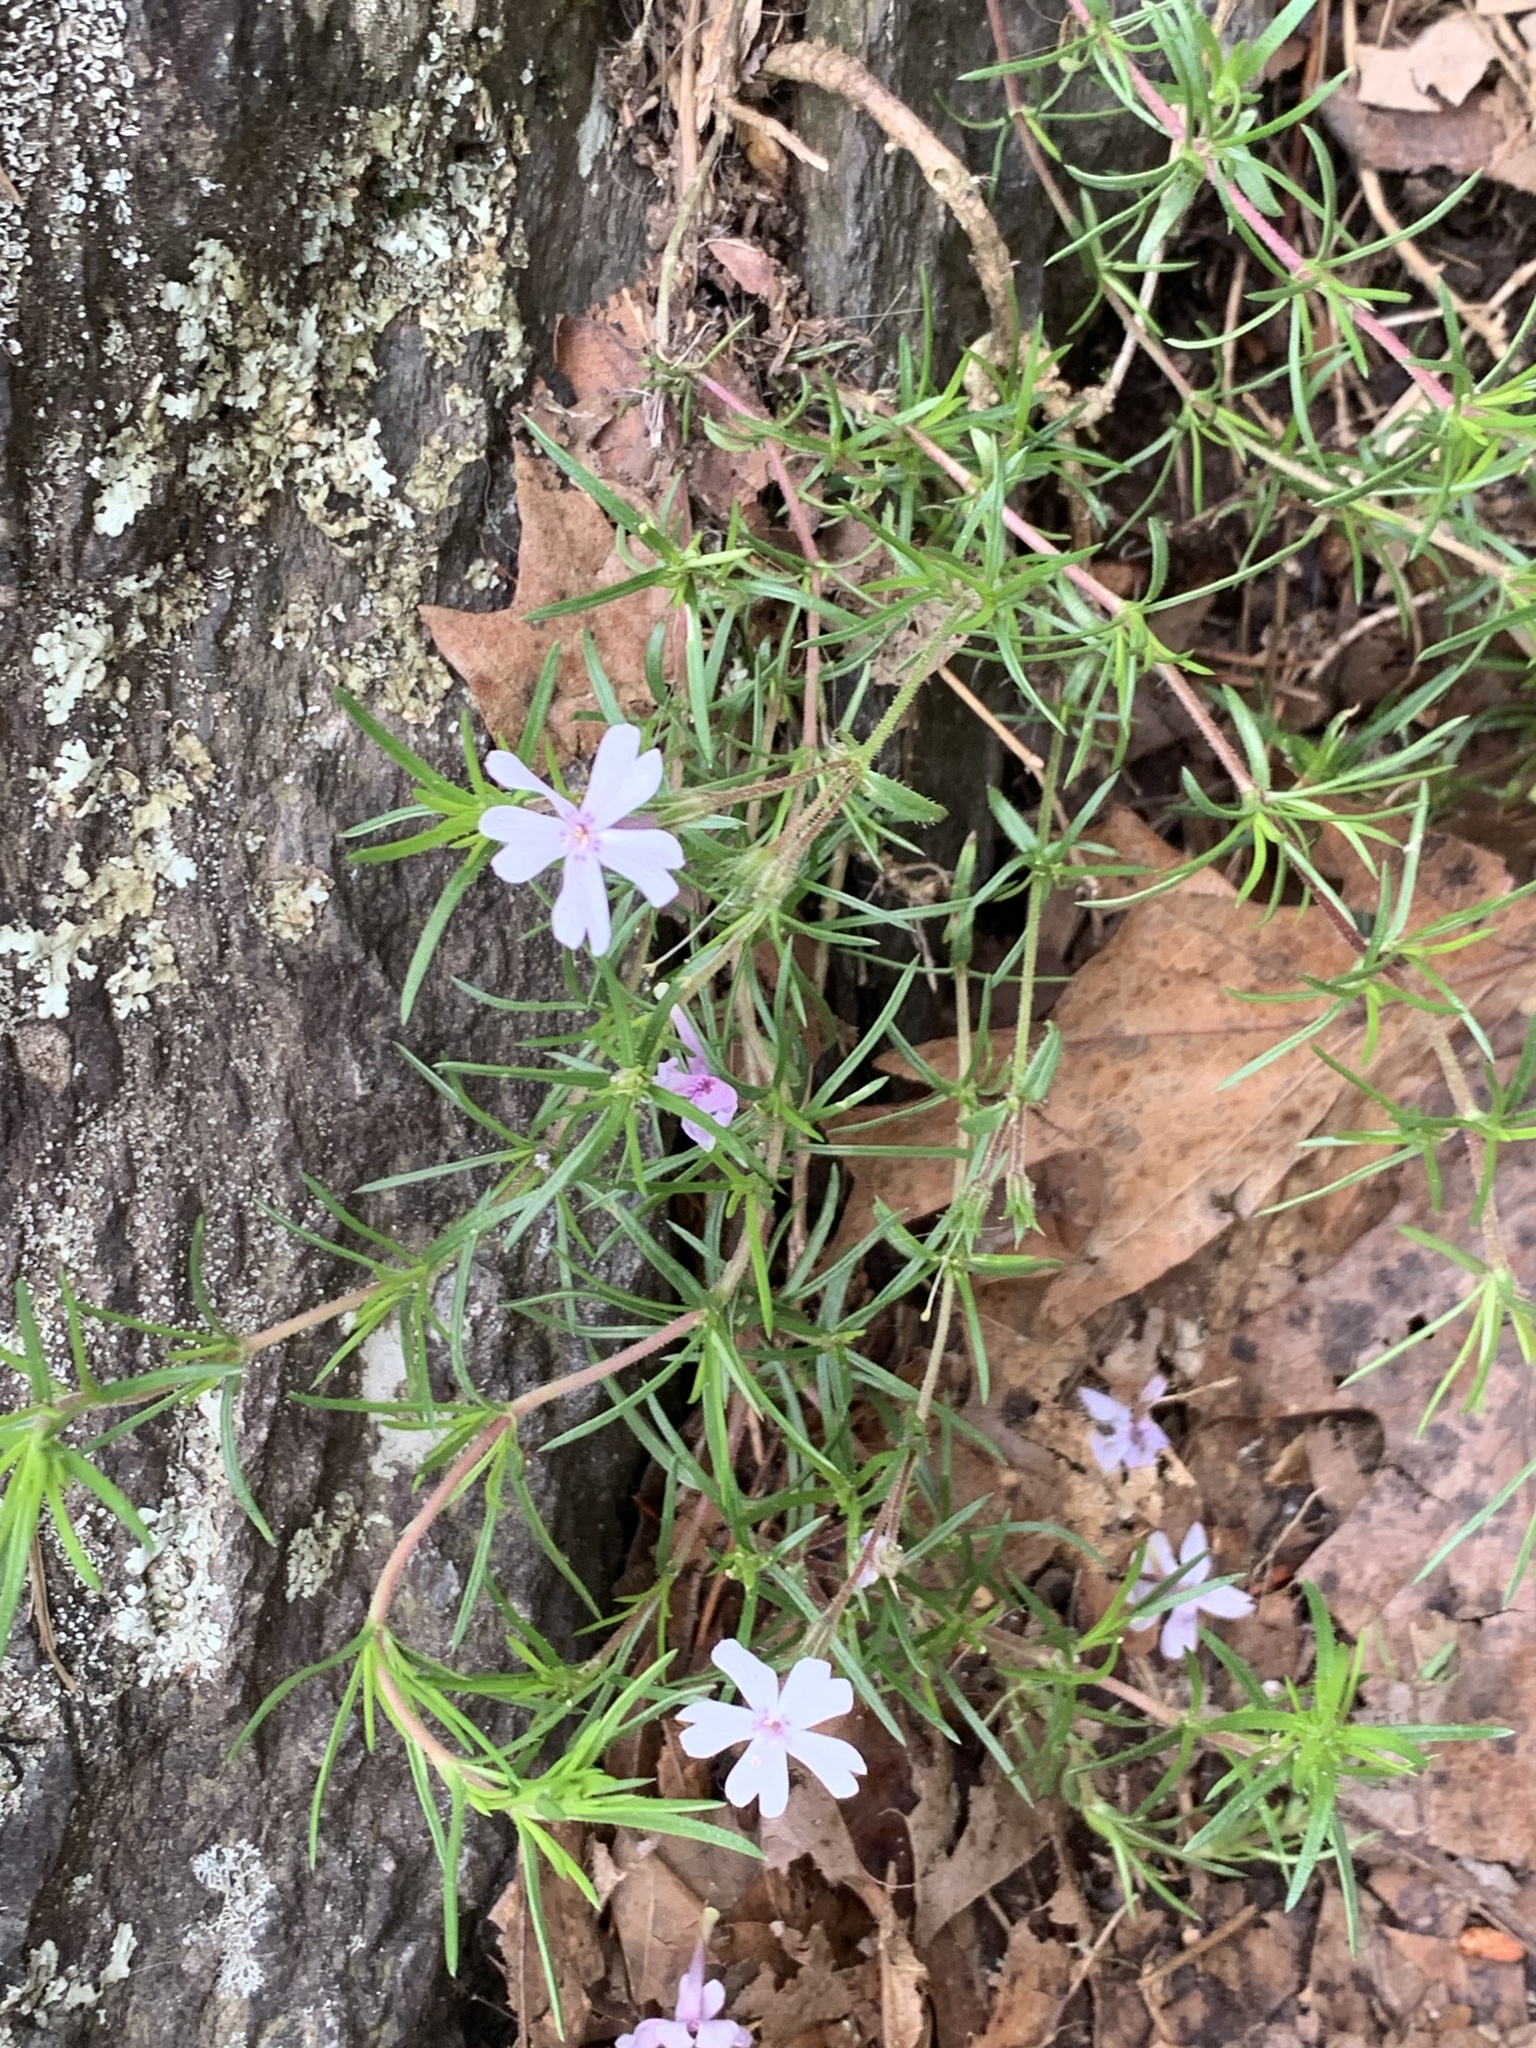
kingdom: Plantae
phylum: Tracheophyta
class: Magnoliopsida
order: Ericales
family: Polemoniaceae
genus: Phlox
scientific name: Phlox subulata
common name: Moss phlox
